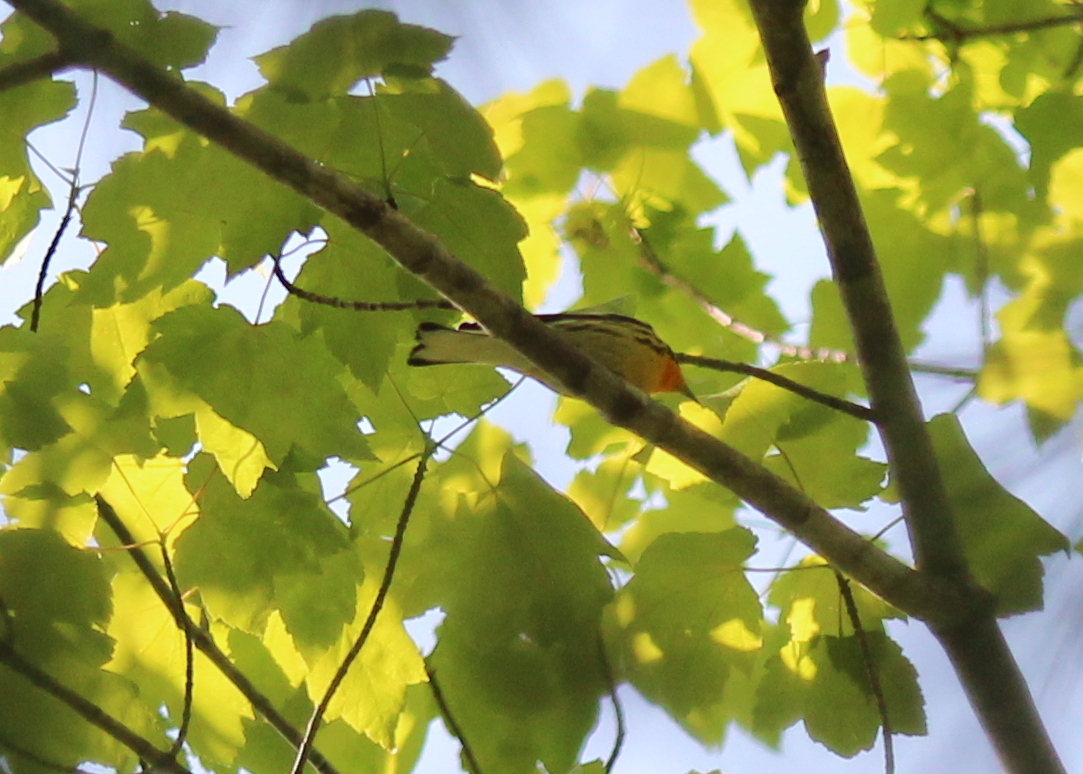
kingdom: Animalia
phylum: Chordata
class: Aves
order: Passeriformes
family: Parulidae
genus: Setophaga
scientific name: Setophaga fusca
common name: Blackburnian warbler
